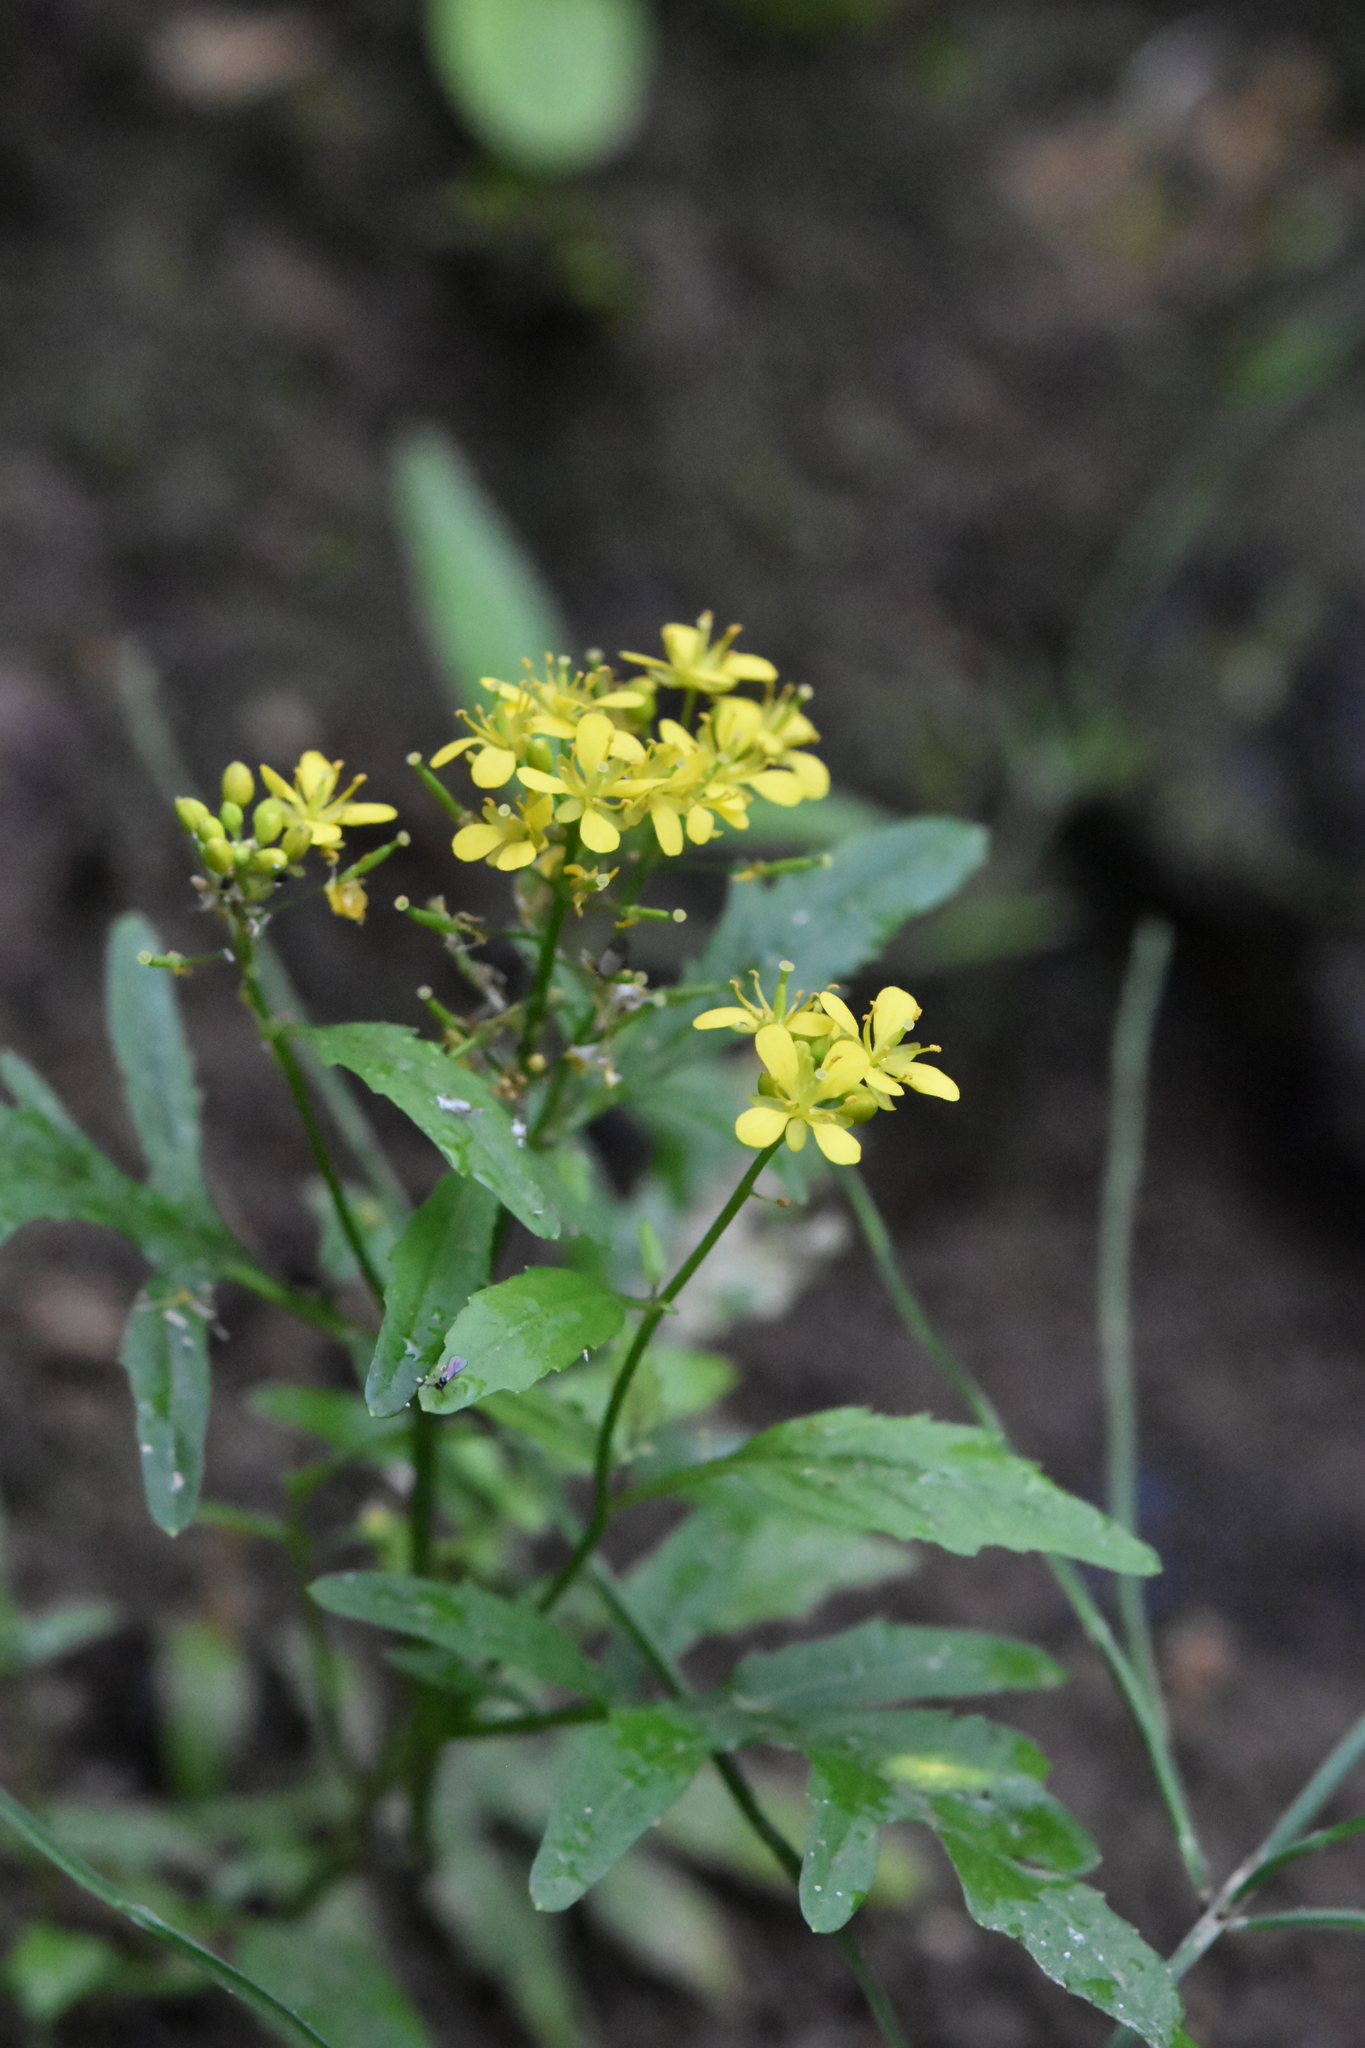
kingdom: Plantae
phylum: Tracheophyta
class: Magnoliopsida
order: Brassicales
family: Brassicaceae
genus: Rorippa
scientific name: Rorippa sylvestris
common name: Creeping yellowcress
